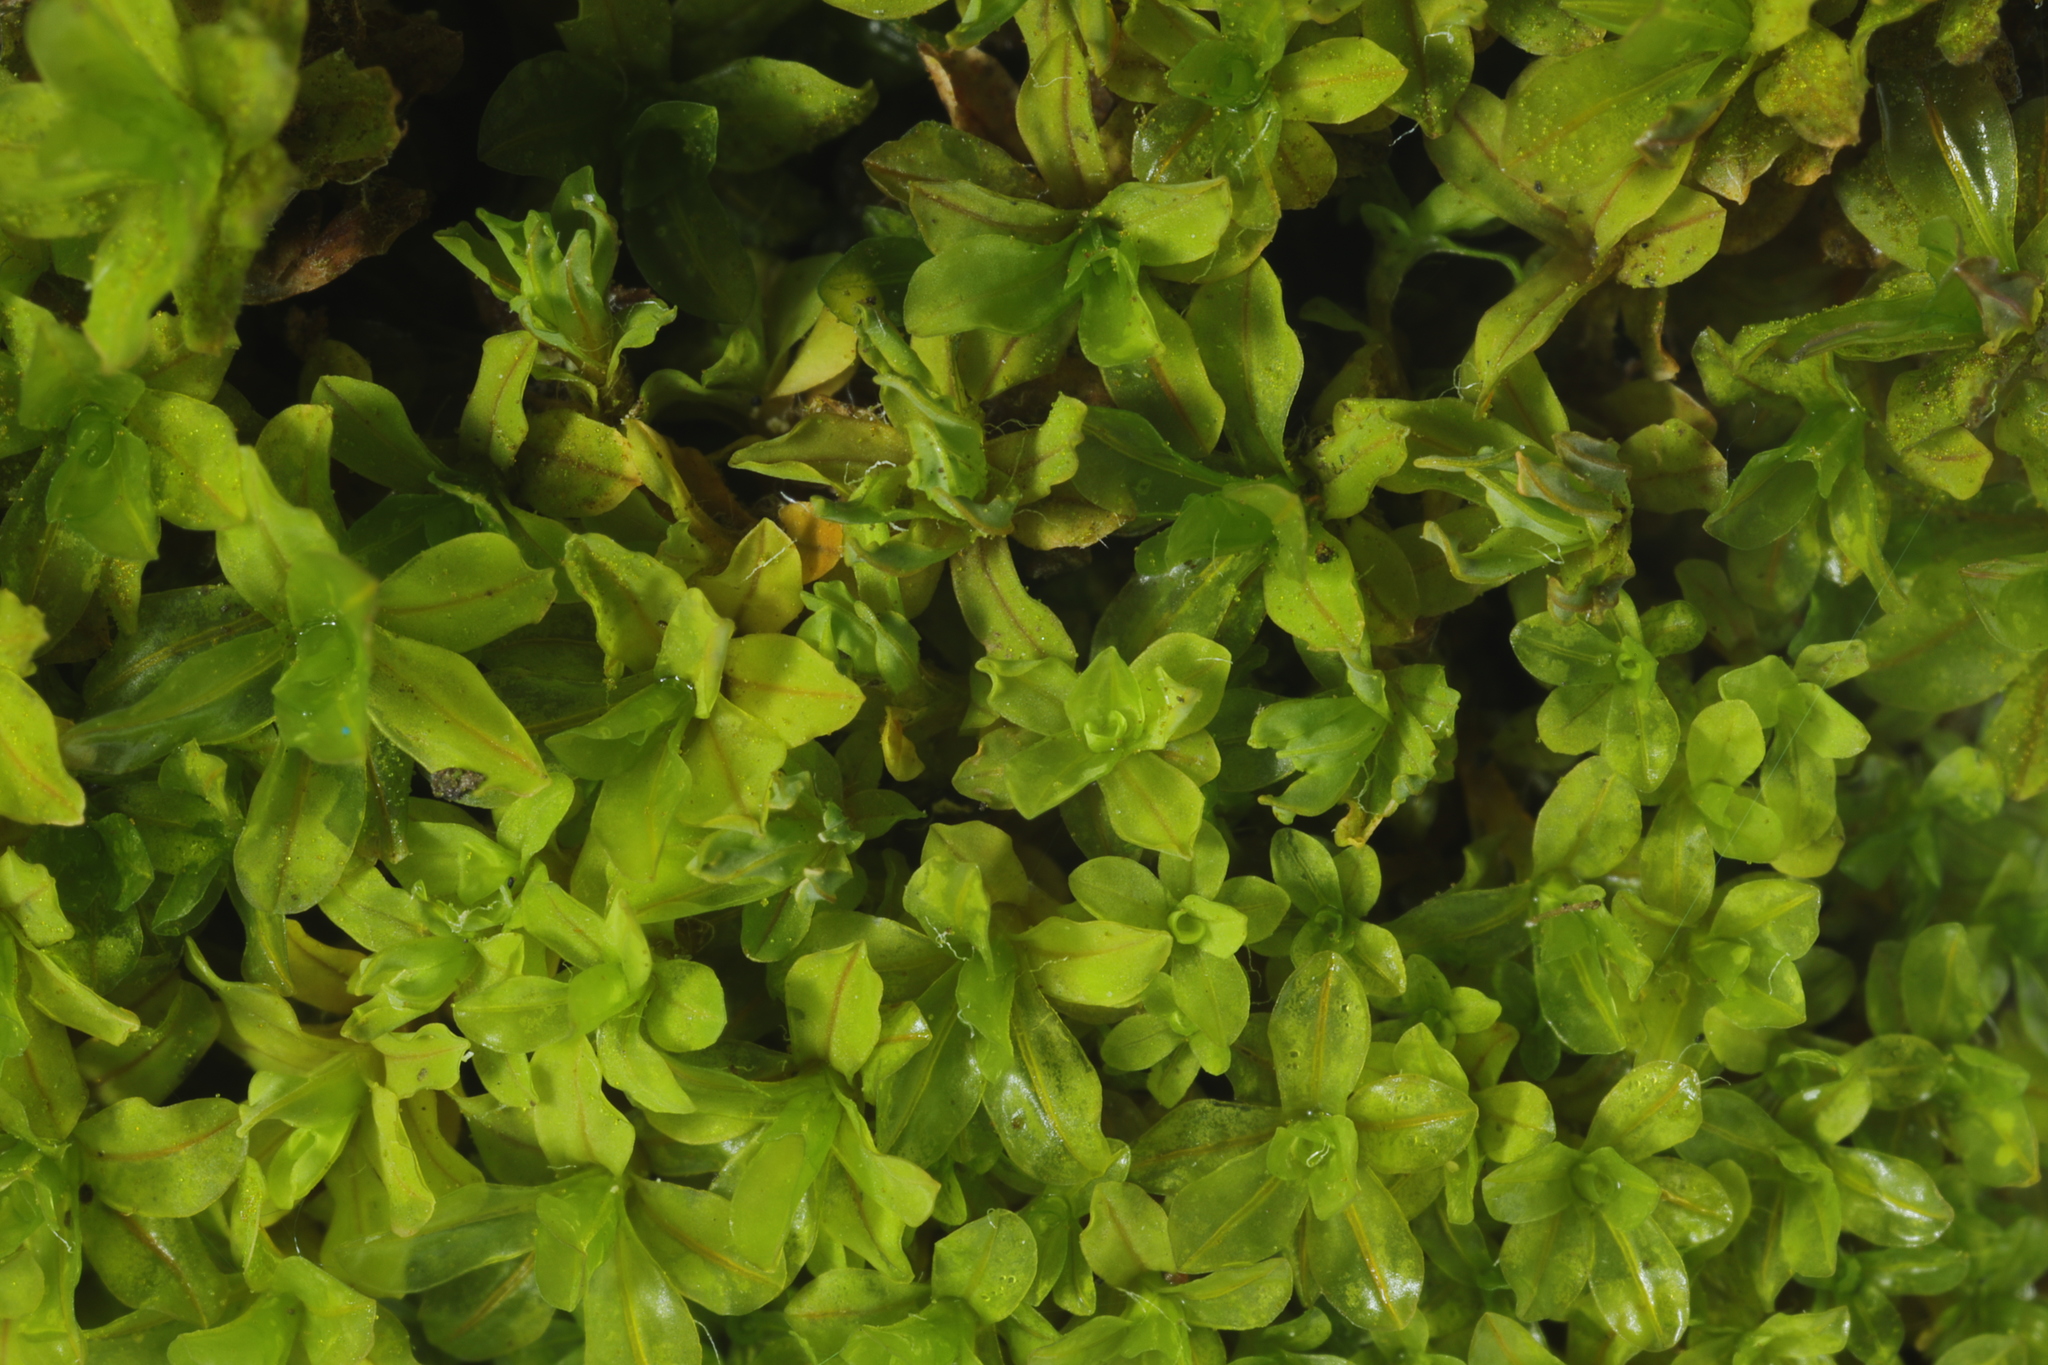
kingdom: Plantae
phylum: Bryophyta
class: Bryopsida
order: Pottiales
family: Pottiaceae
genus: Syntrichia
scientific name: Syntrichia latifolia
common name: Water screw-moss
